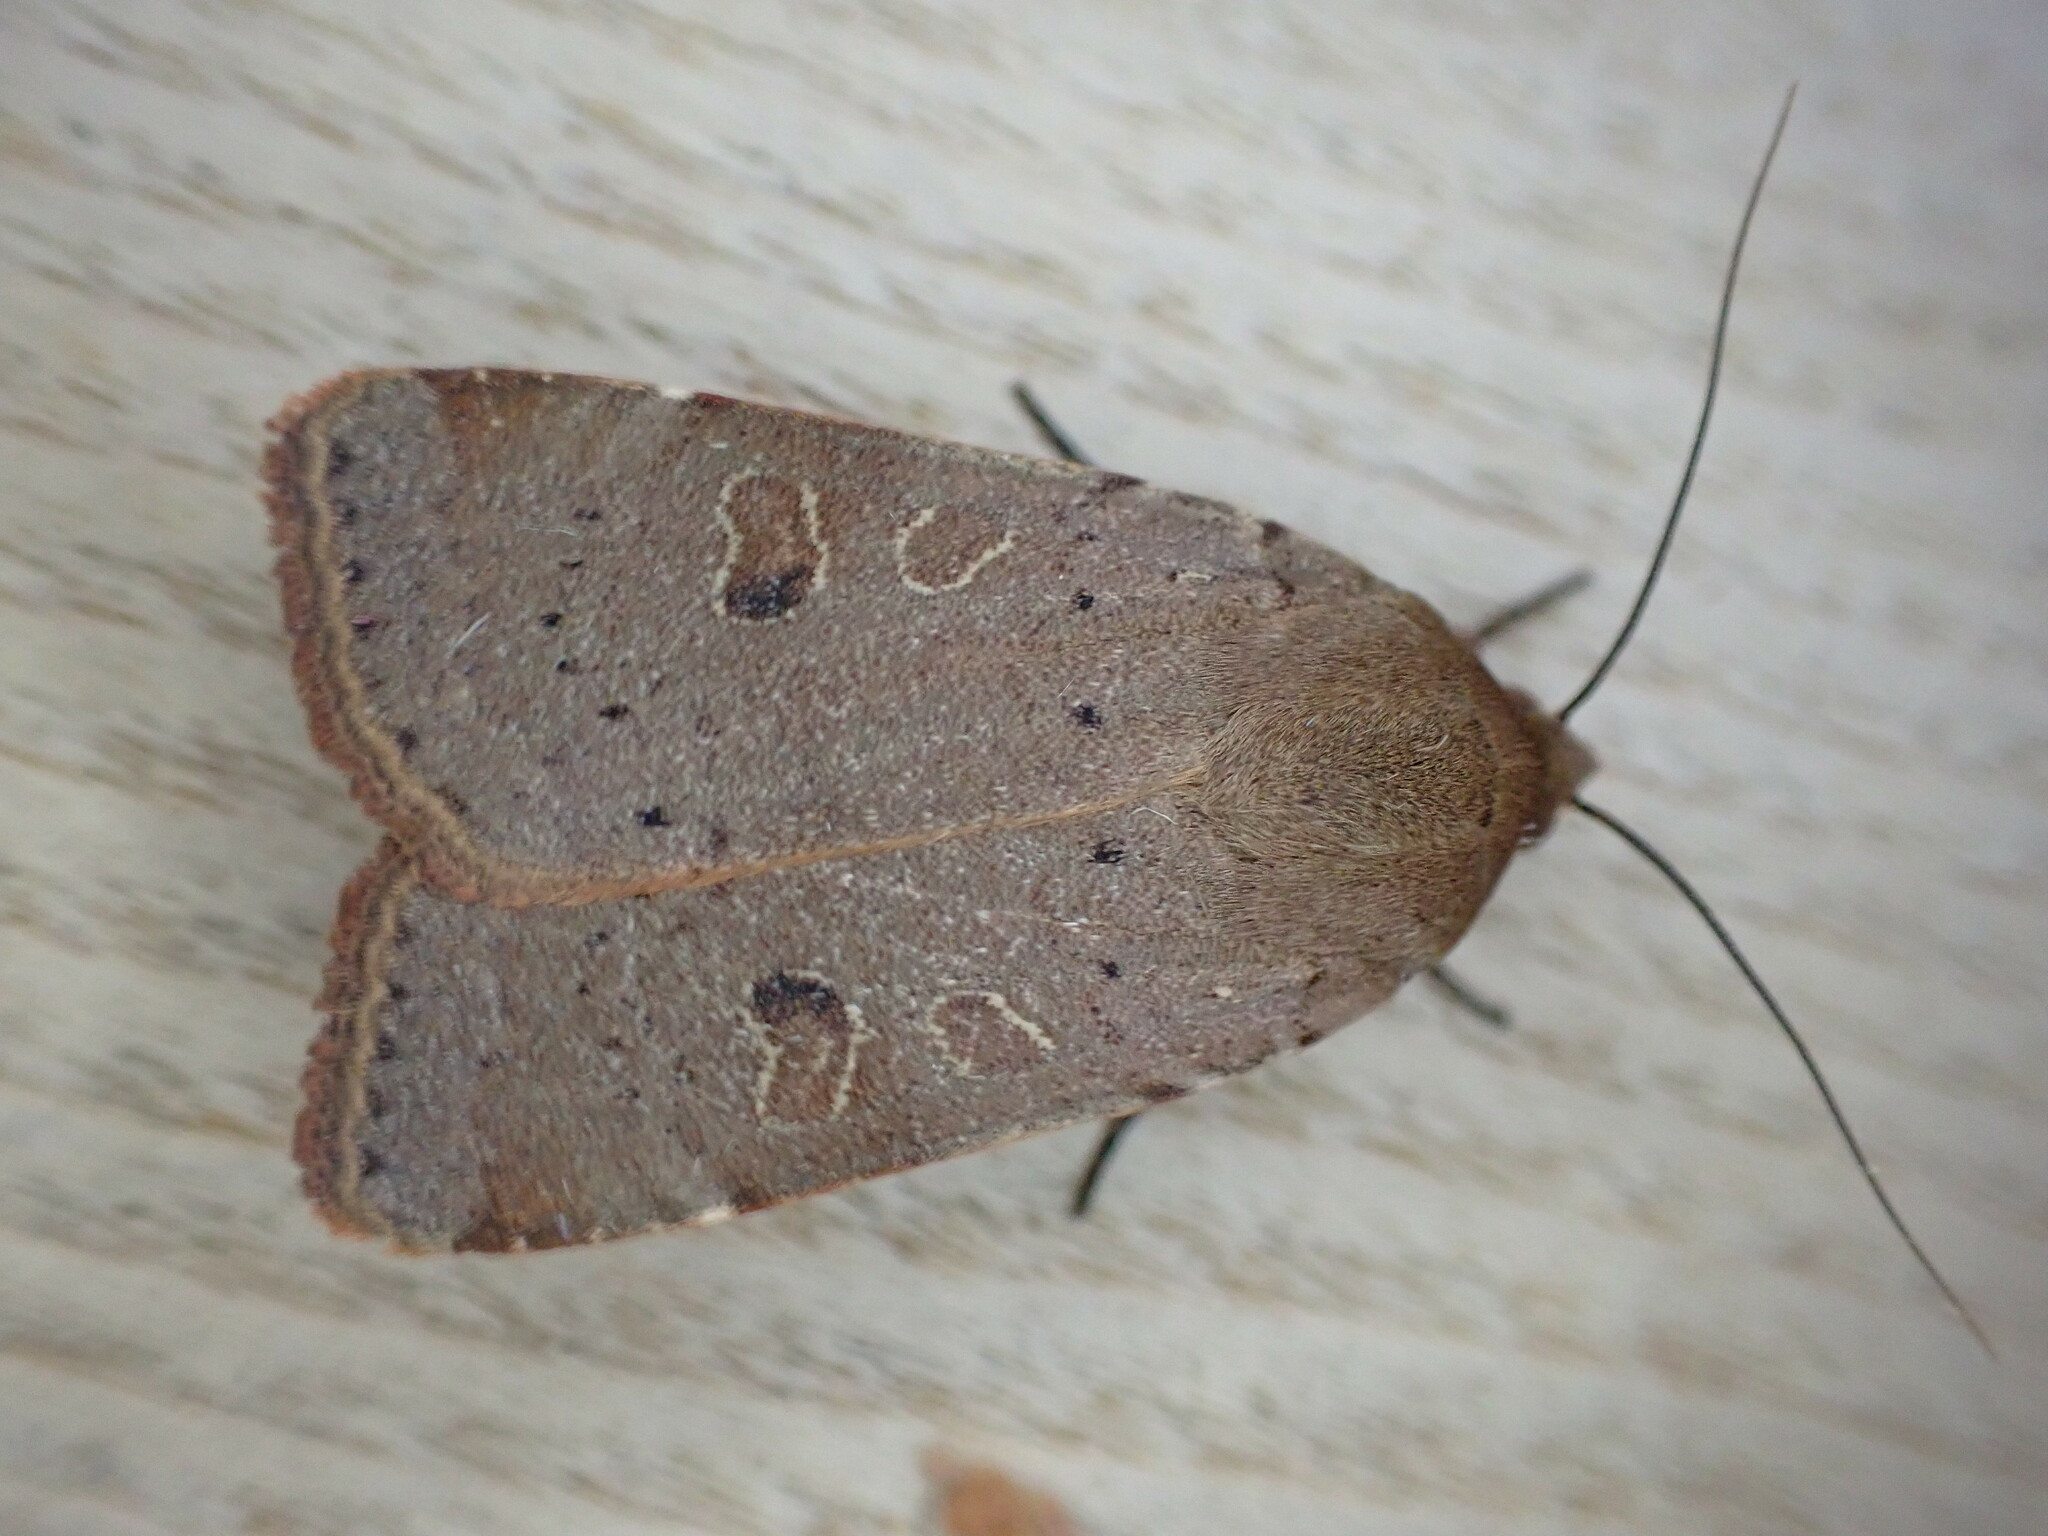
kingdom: Animalia
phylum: Arthropoda
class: Insecta
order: Lepidoptera
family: Noctuidae
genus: Noctua
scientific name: Noctua comes
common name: Lesser yellow underwing
